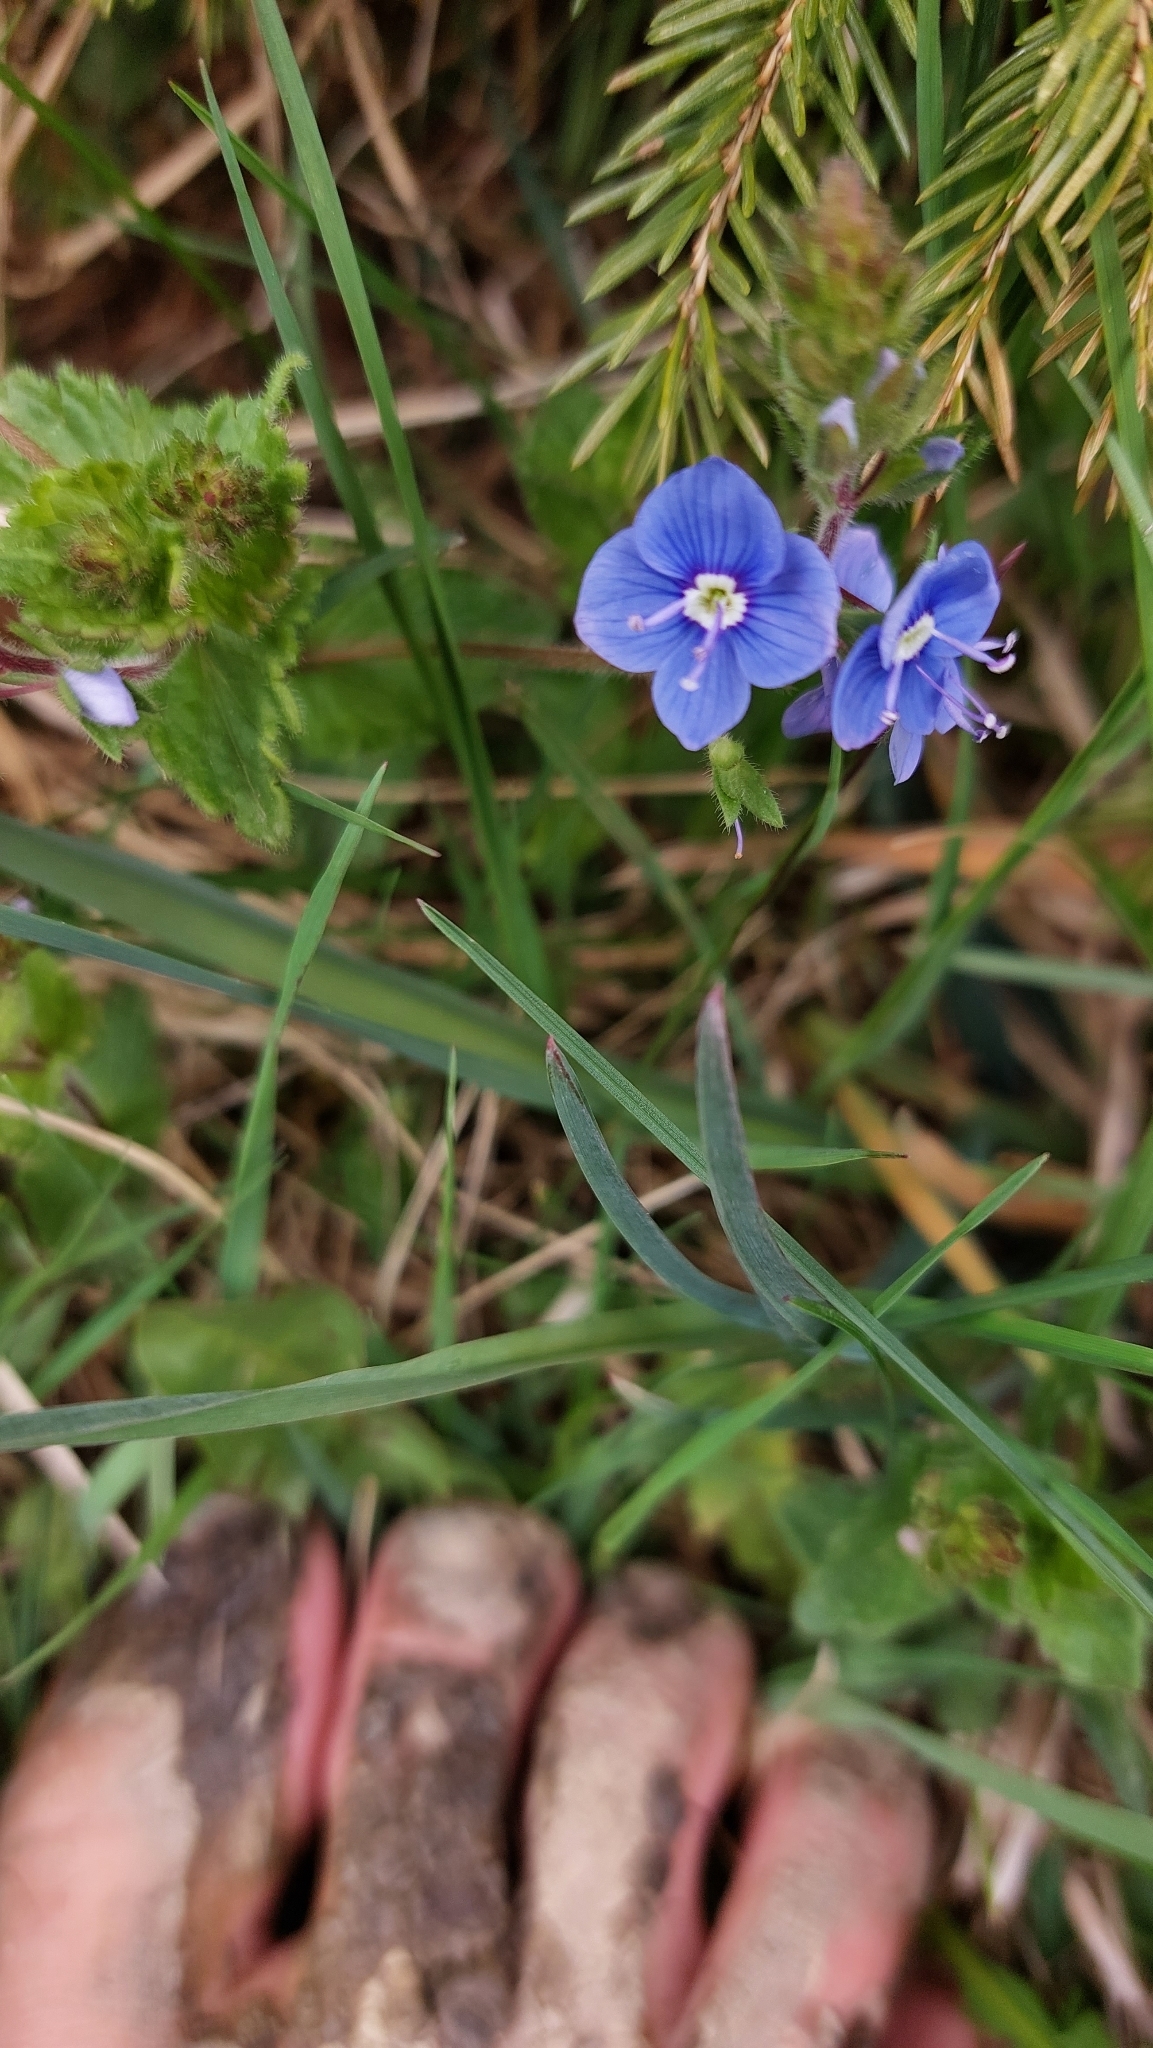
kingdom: Plantae
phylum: Tracheophyta
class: Magnoliopsida
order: Lamiales
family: Plantaginaceae
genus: Veronica
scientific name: Veronica chamaedrys
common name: Germander speedwell
